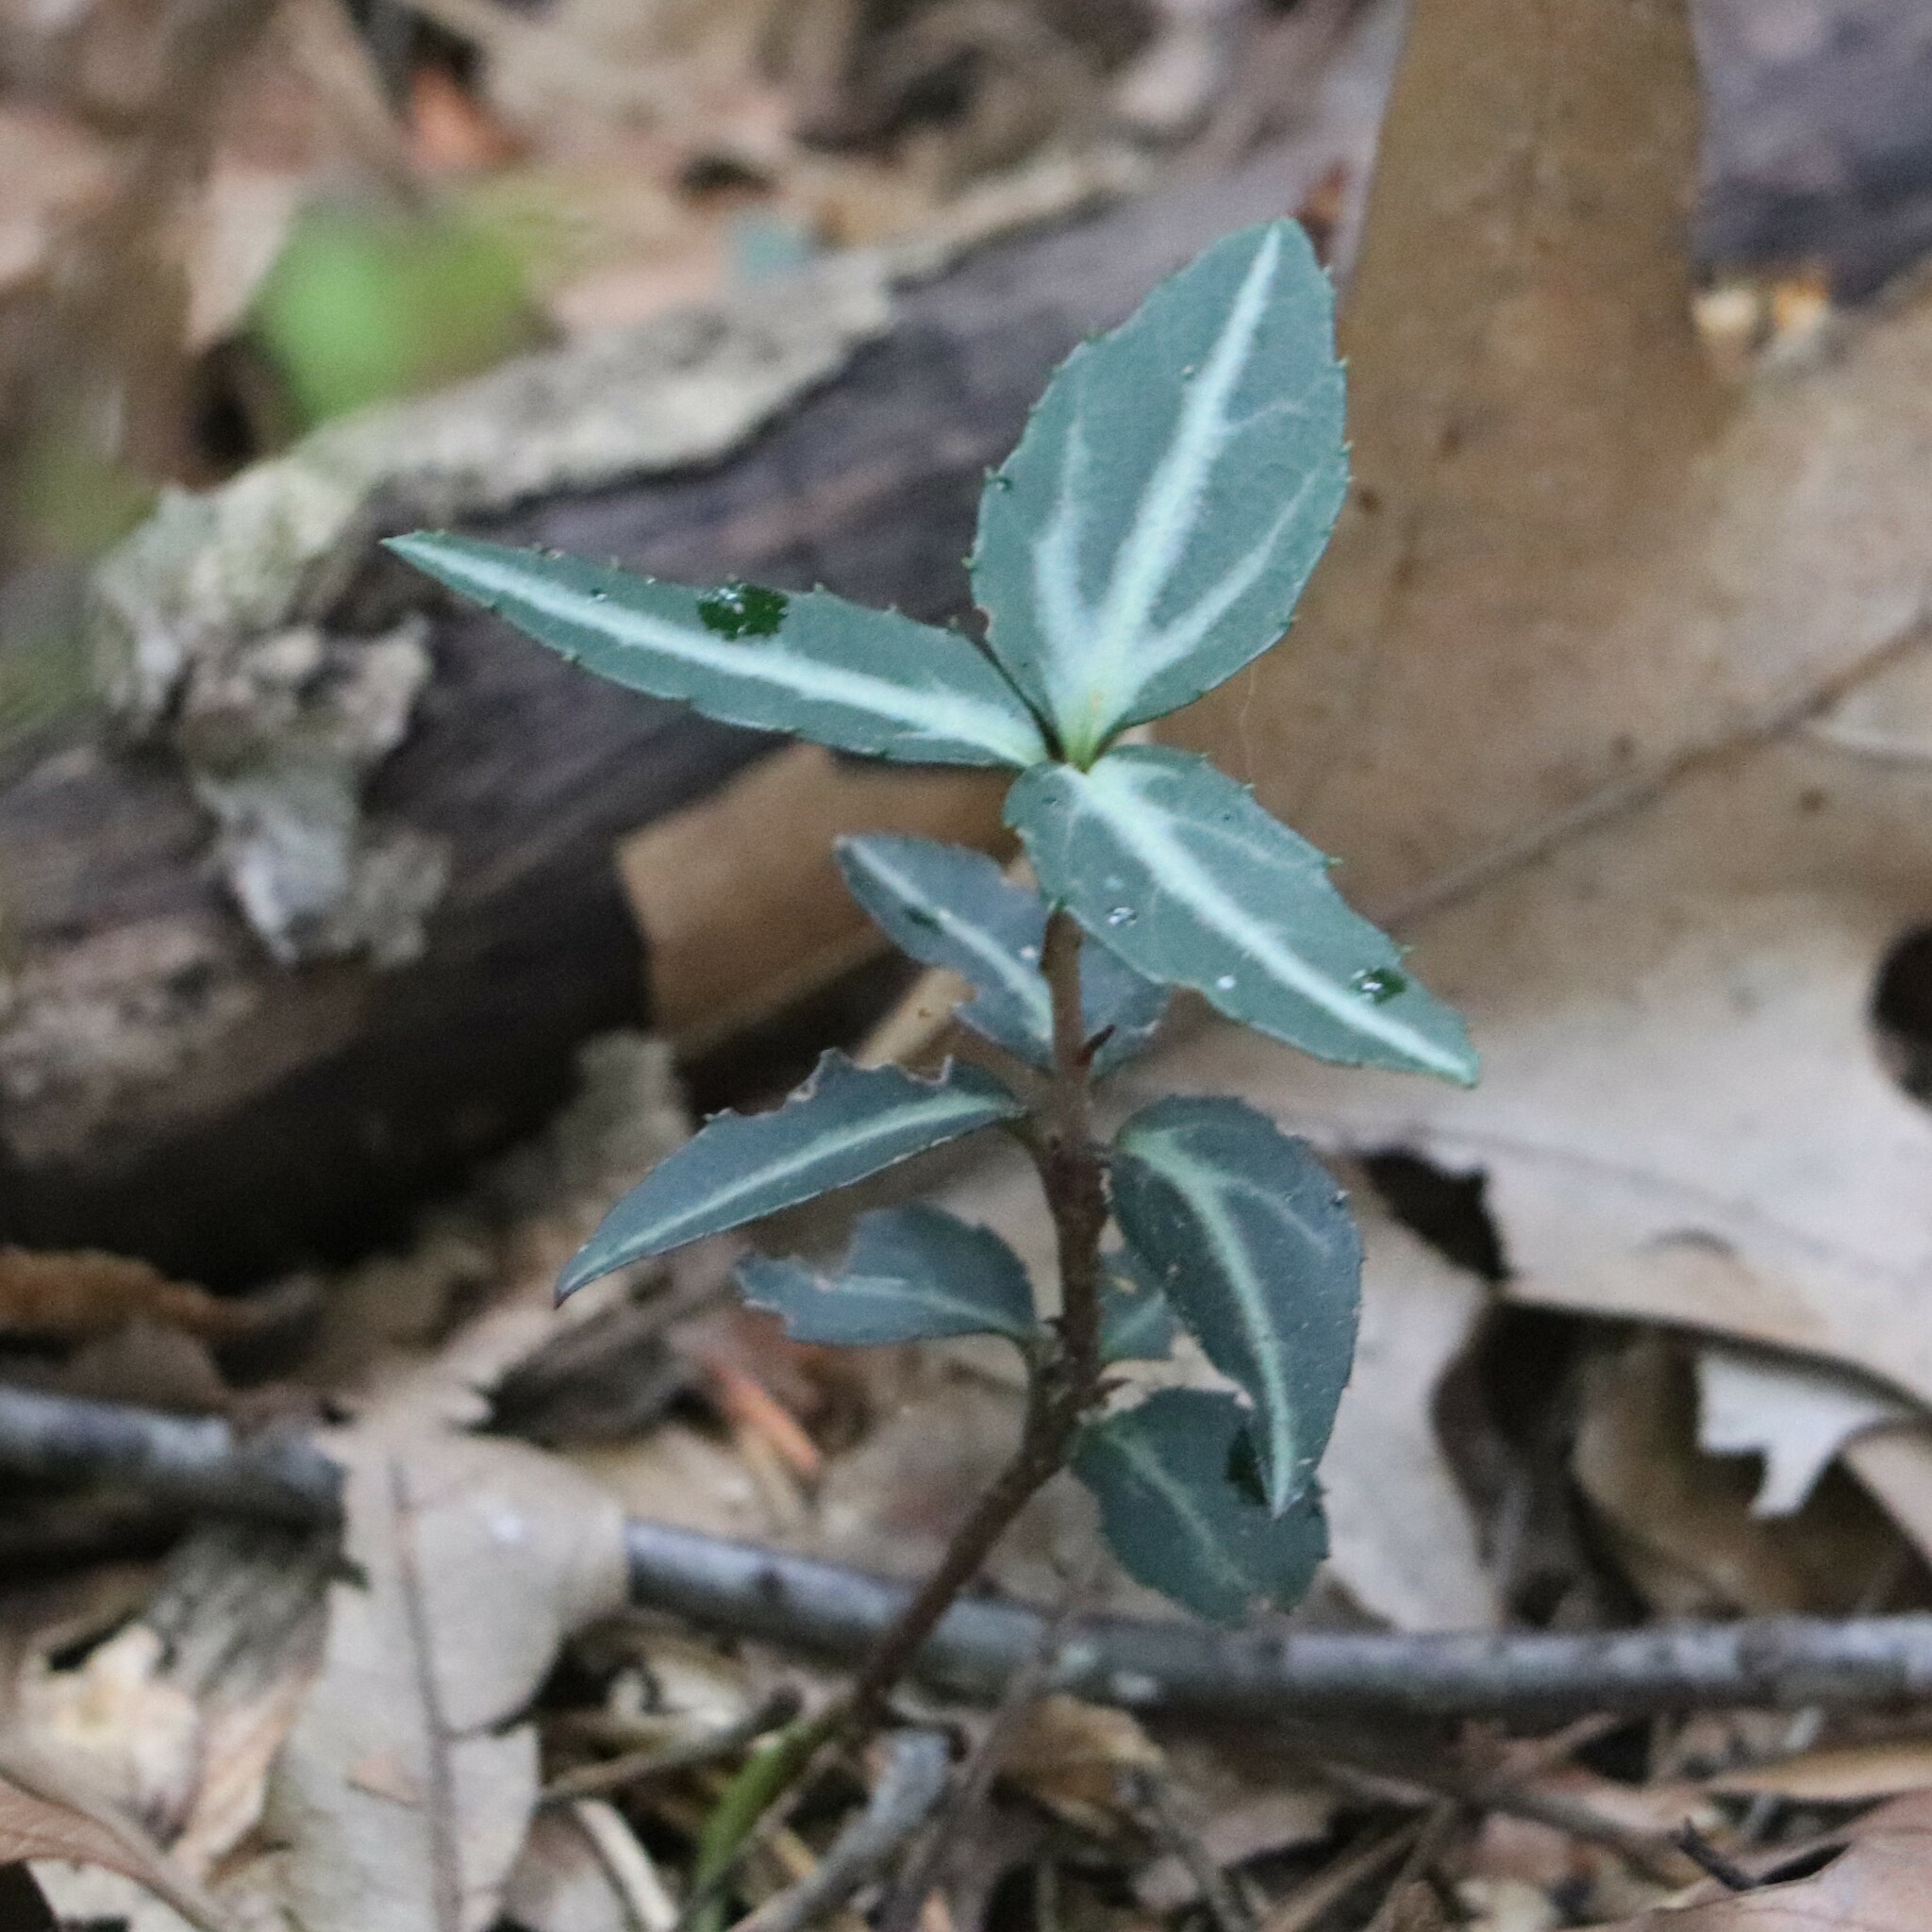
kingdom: Plantae
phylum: Tracheophyta
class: Magnoliopsida
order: Ericales
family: Ericaceae
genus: Chimaphila
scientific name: Chimaphila maculata
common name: Spotted pipsissewa
